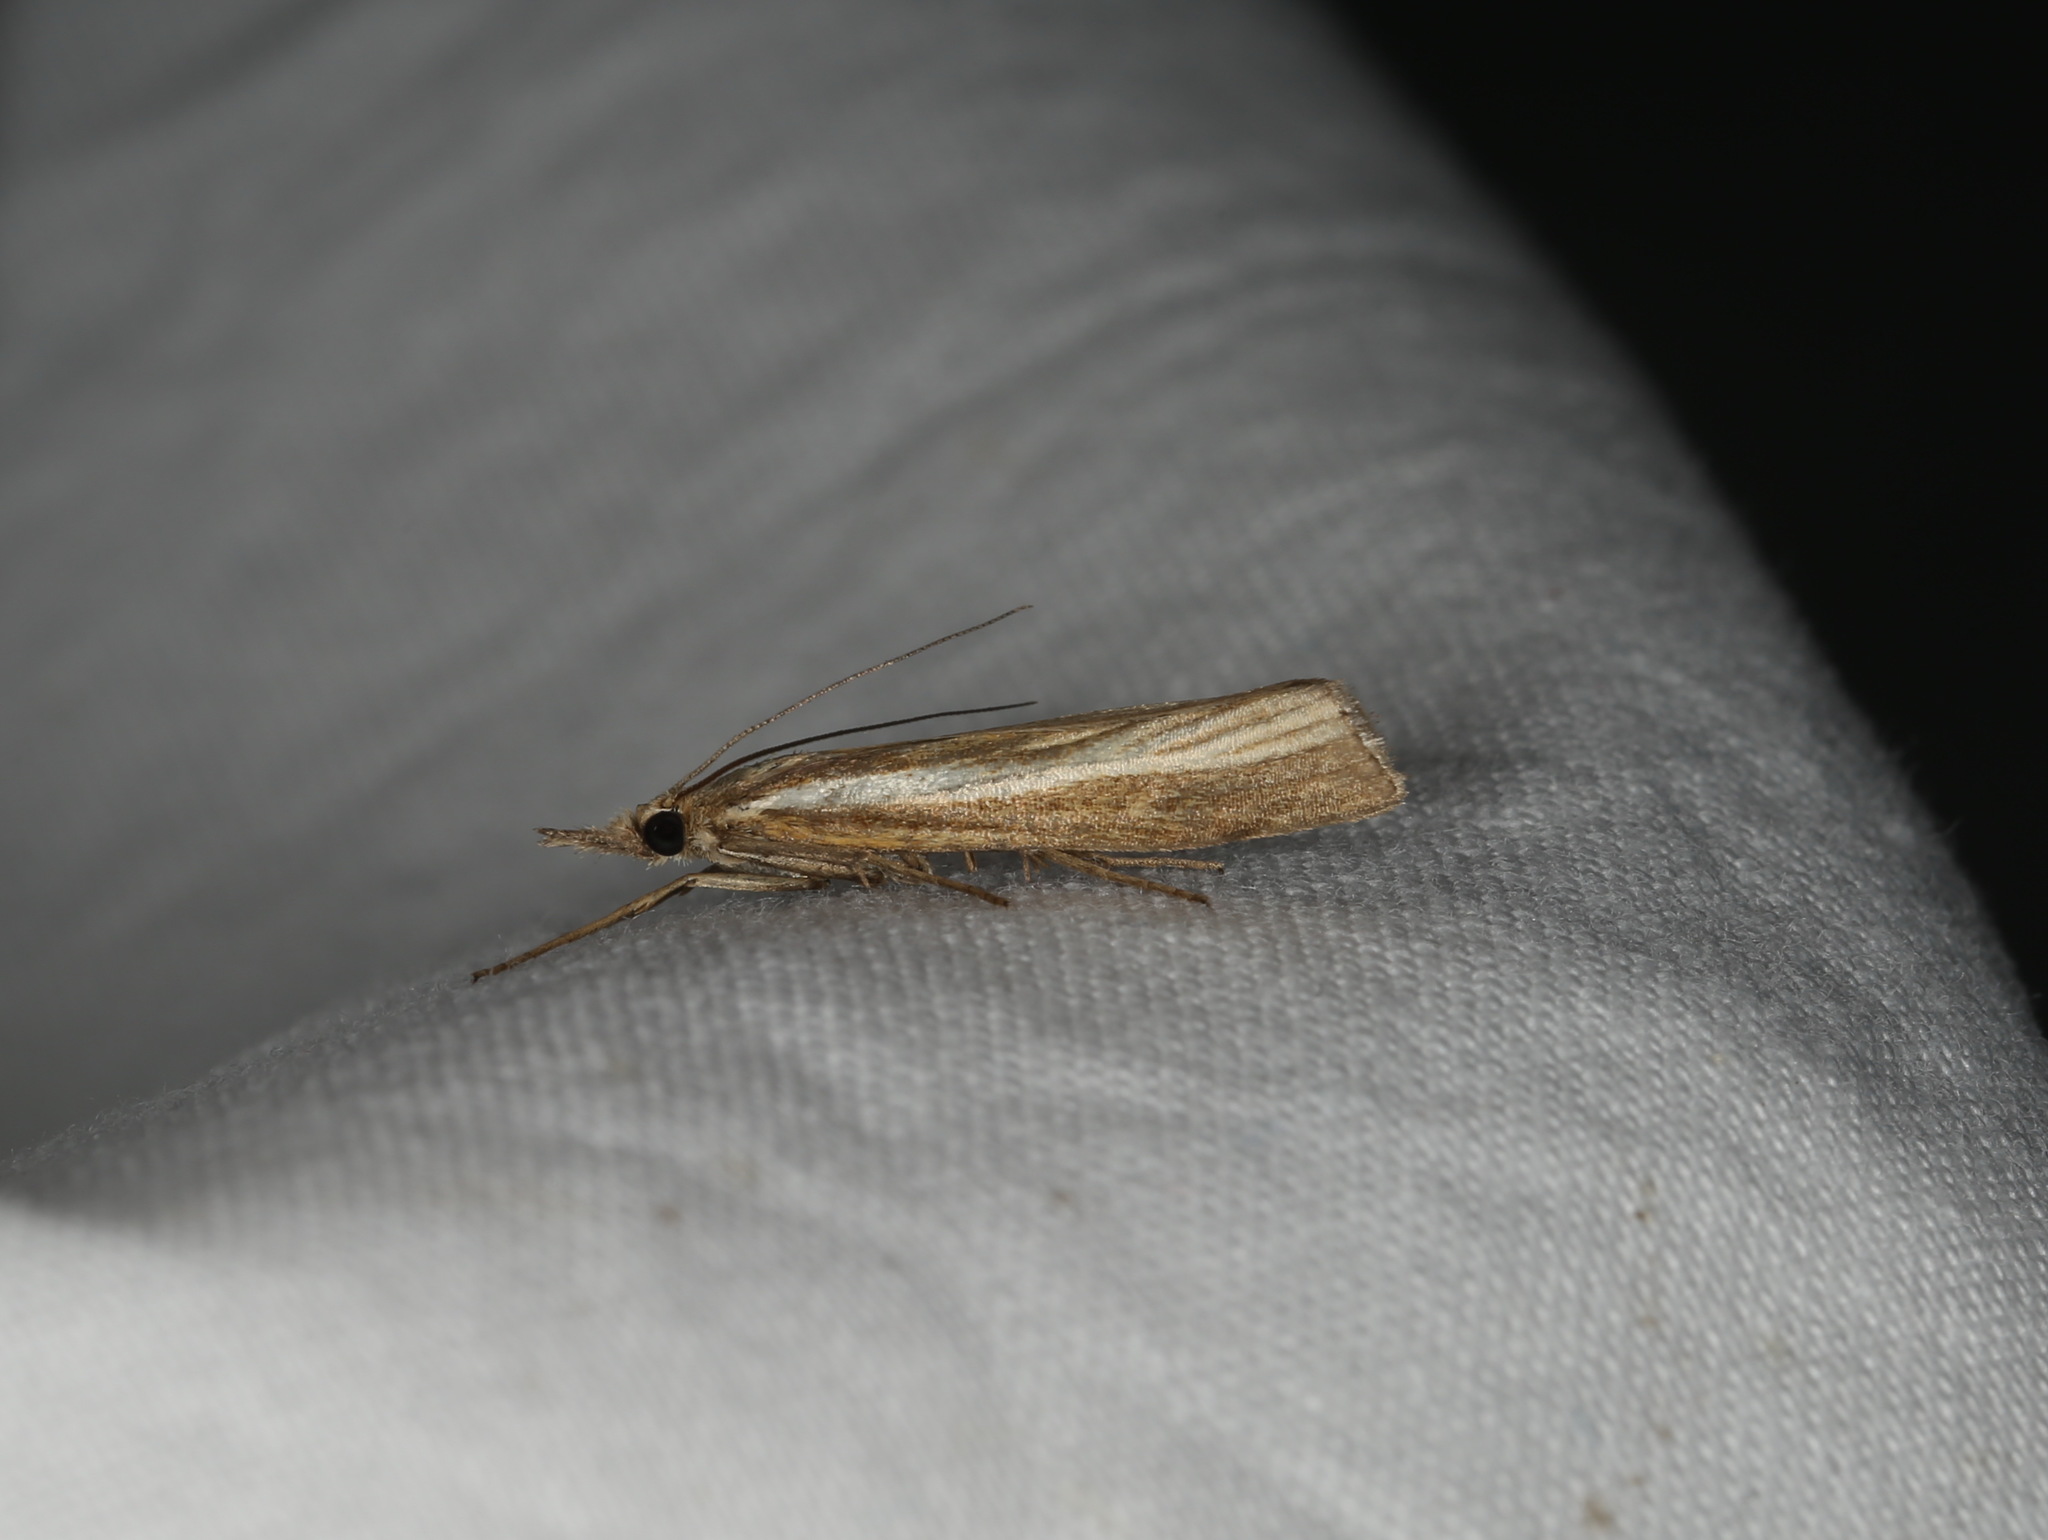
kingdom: Animalia
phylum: Arthropoda
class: Insecta
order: Lepidoptera
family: Crambidae
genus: Agriphila
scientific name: Agriphila tristellus
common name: Common grass-veneer
